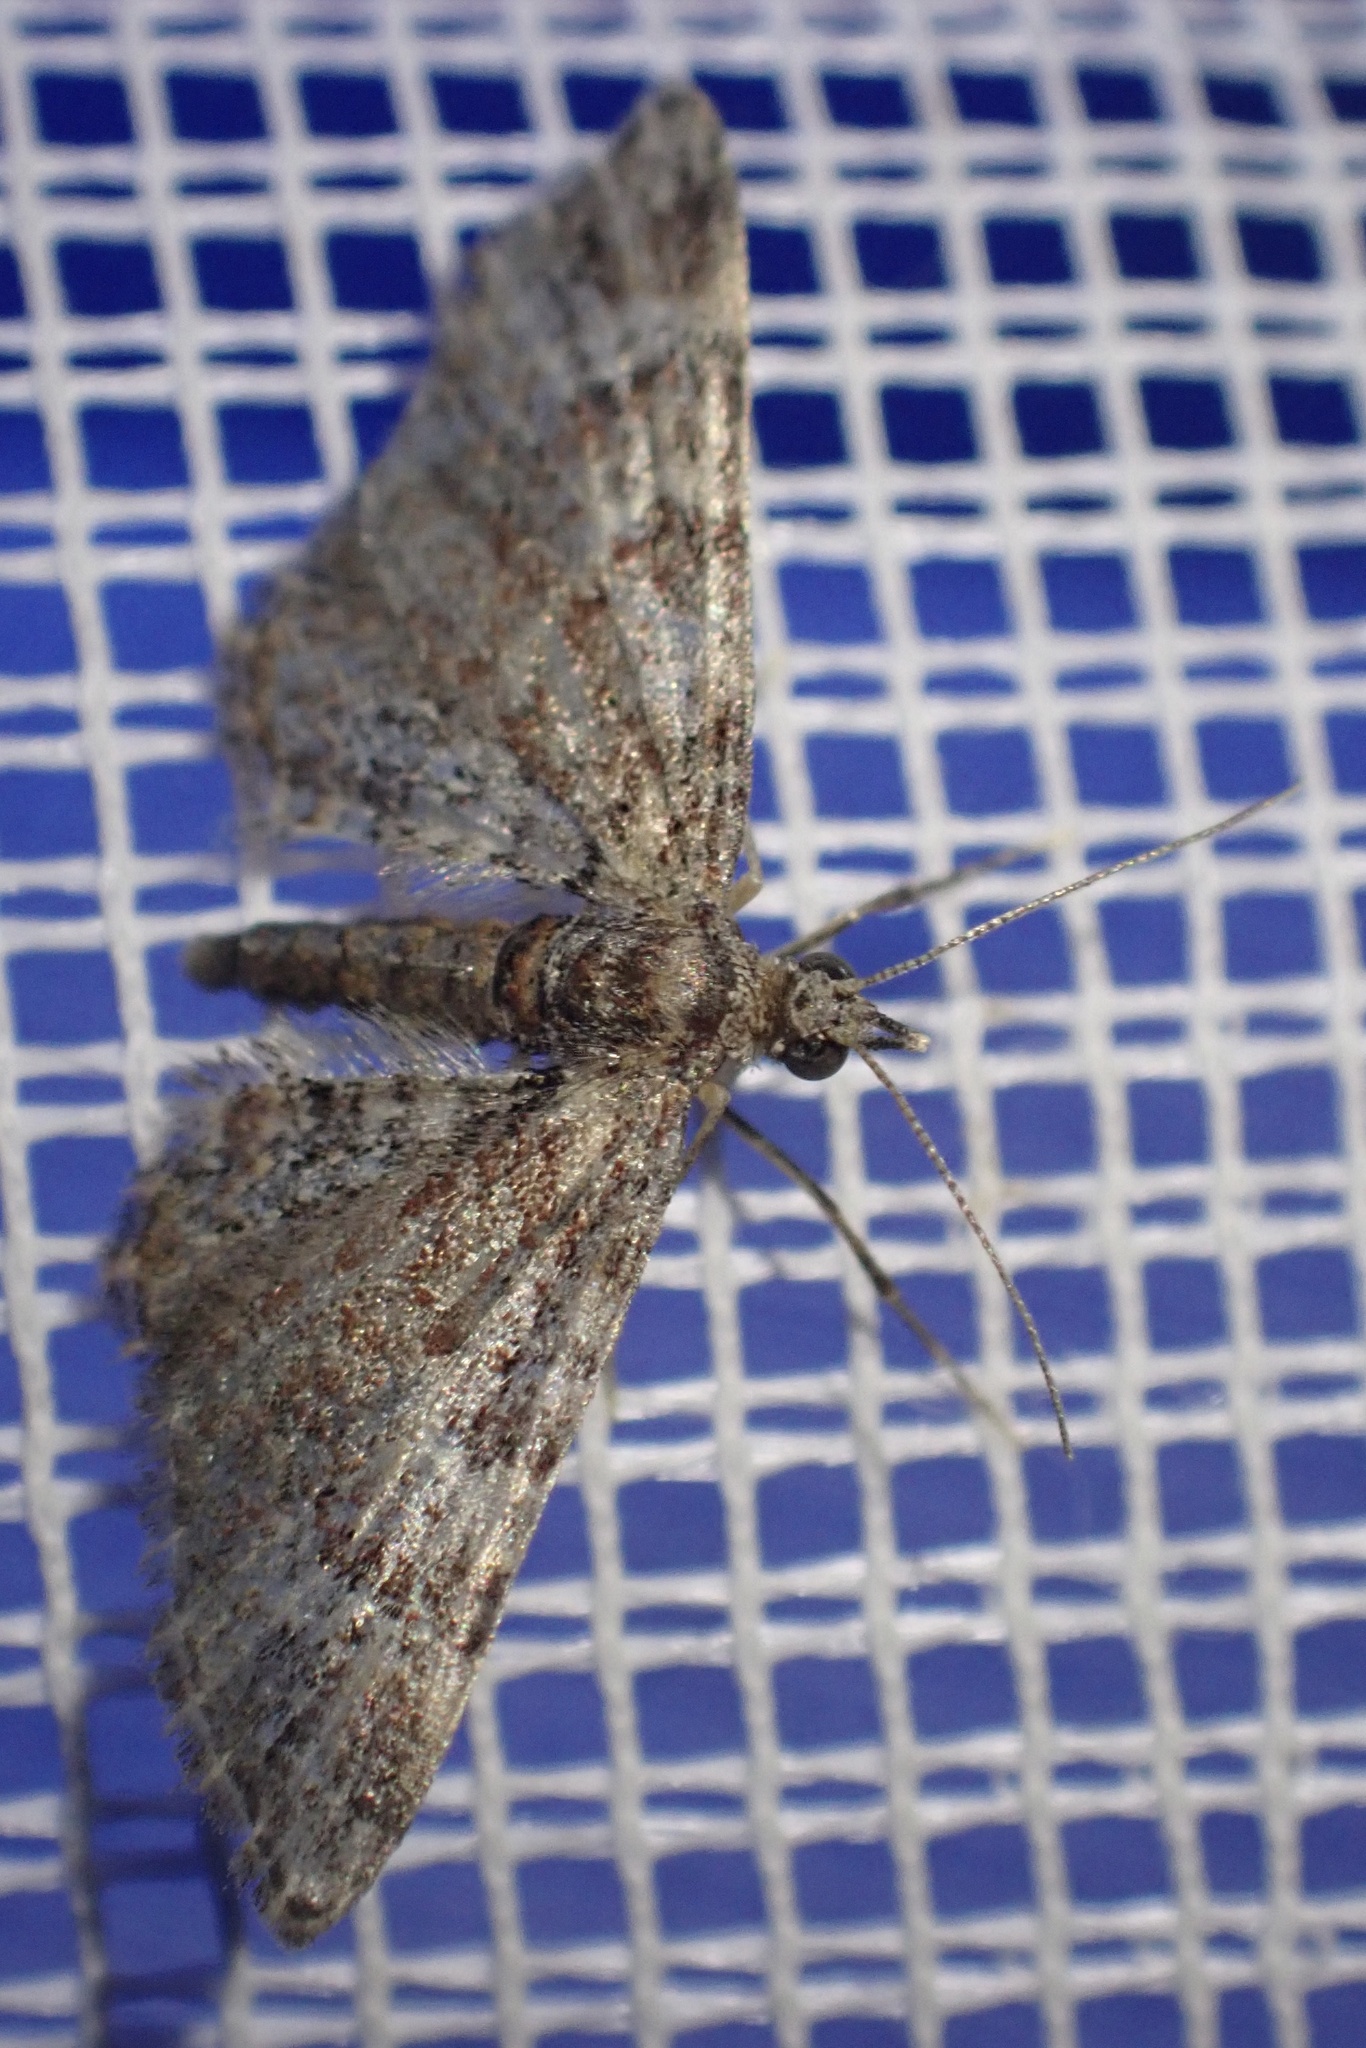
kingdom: Animalia
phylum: Arthropoda
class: Insecta
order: Lepidoptera
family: Geometridae
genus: Gymnoscelis
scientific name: Gymnoscelis rufifasciata
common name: Double-striped pug
